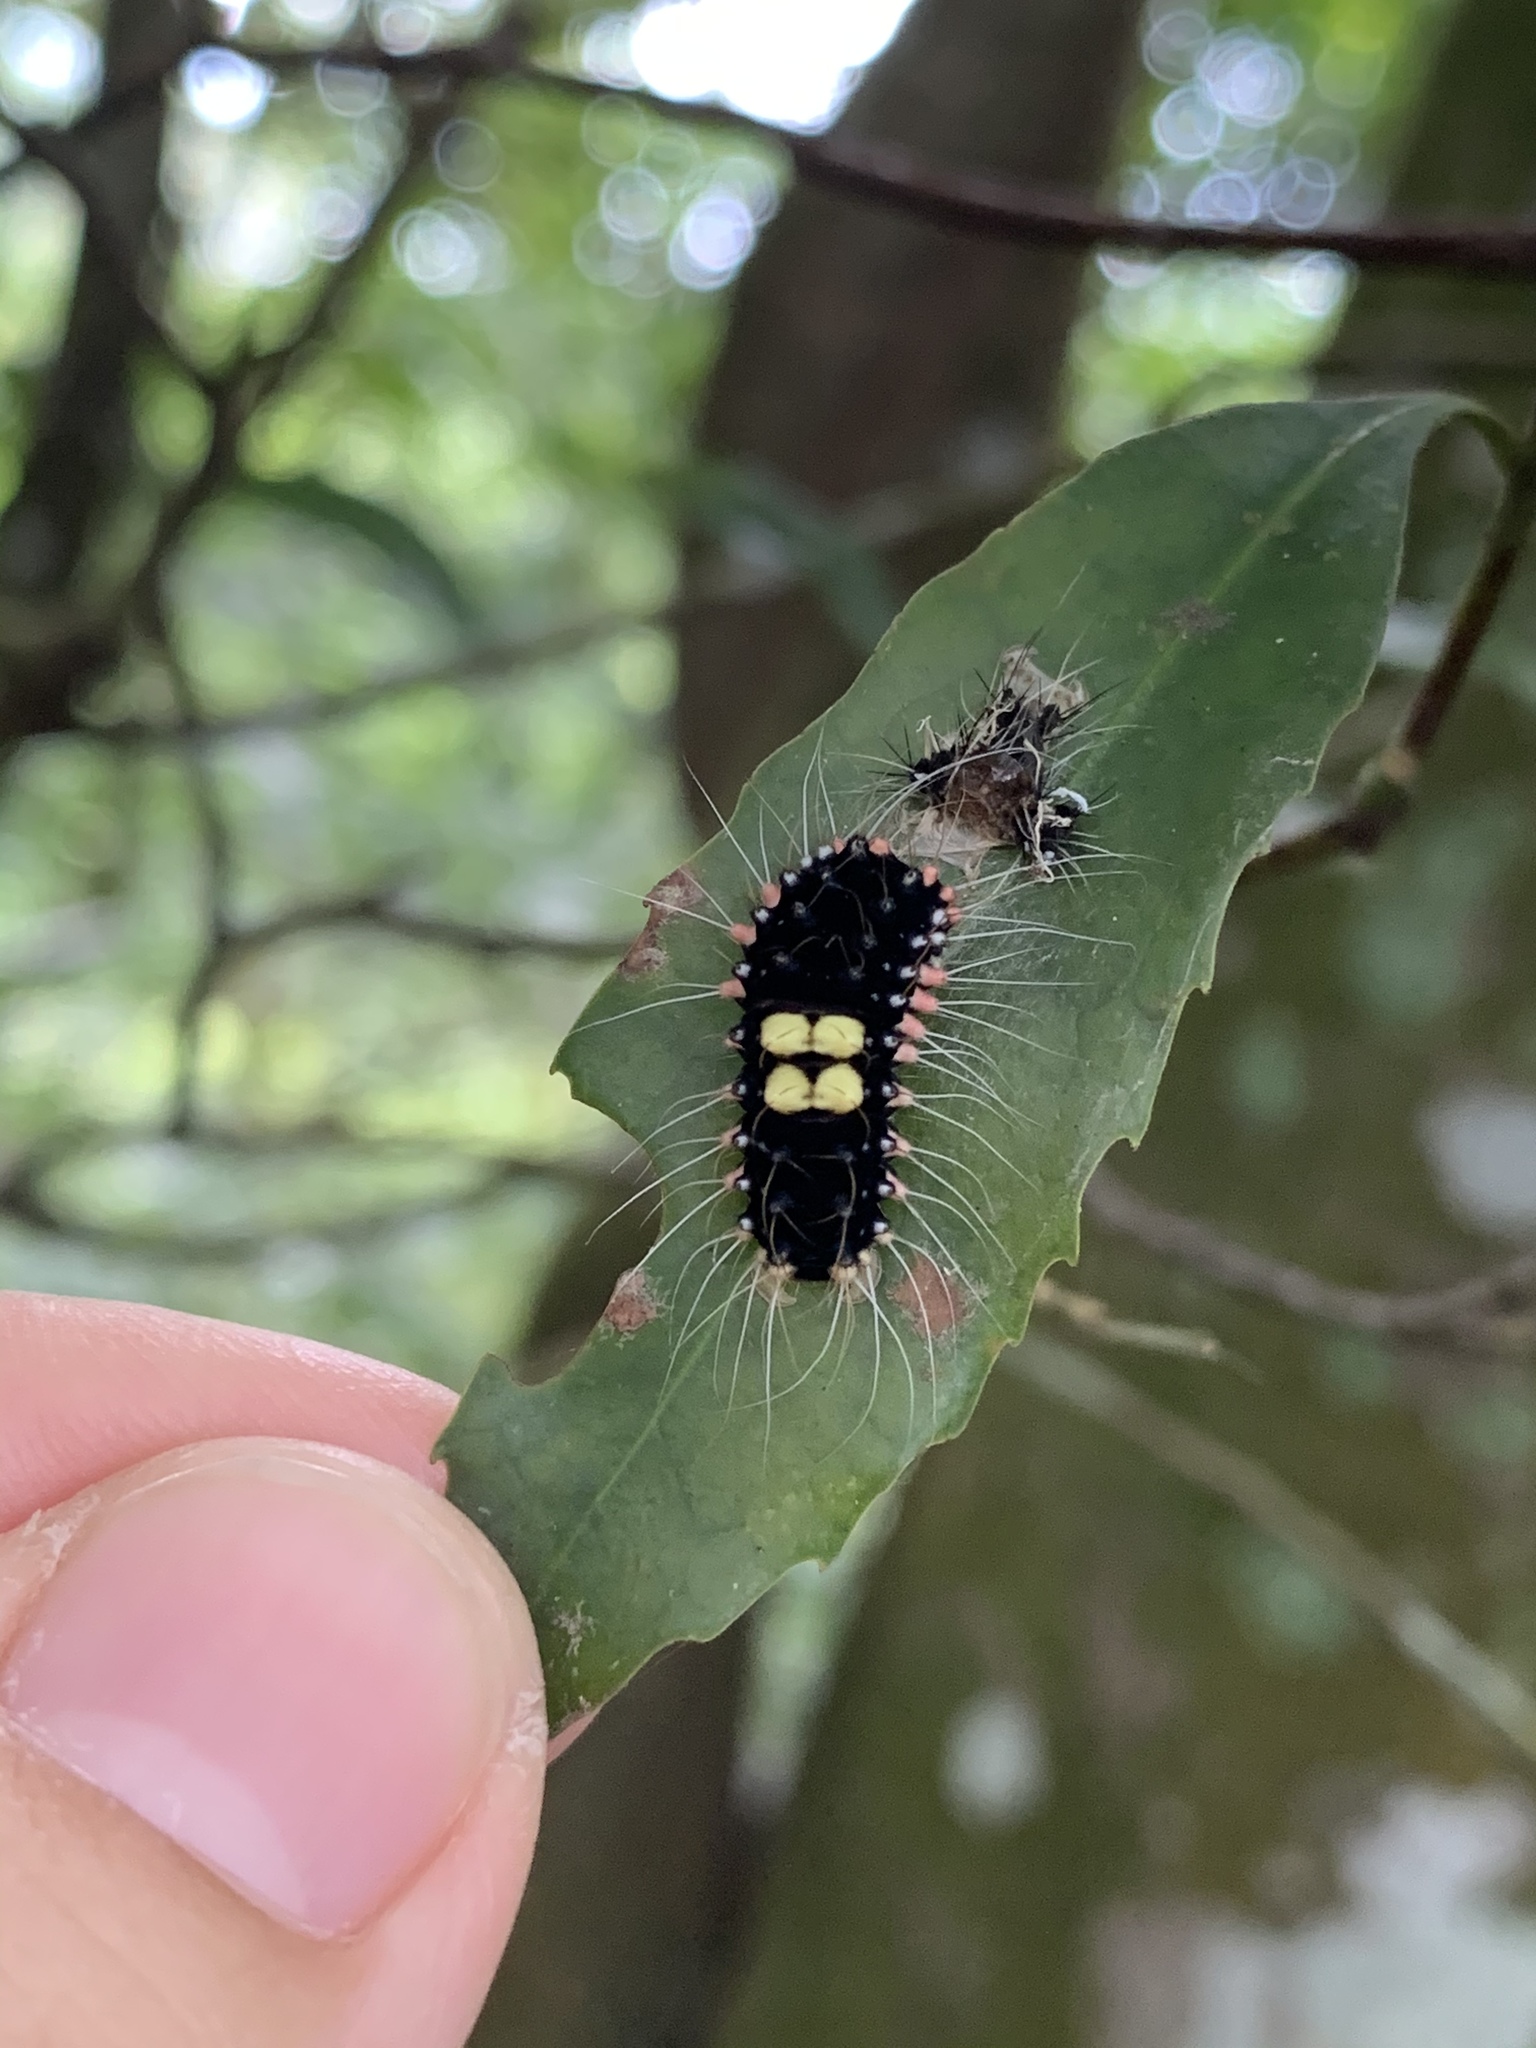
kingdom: Animalia
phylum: Arthropoda
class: Insecta
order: Lepidoptera
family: Zygaenidae
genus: Erasmia
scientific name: Erasmia pulchella
